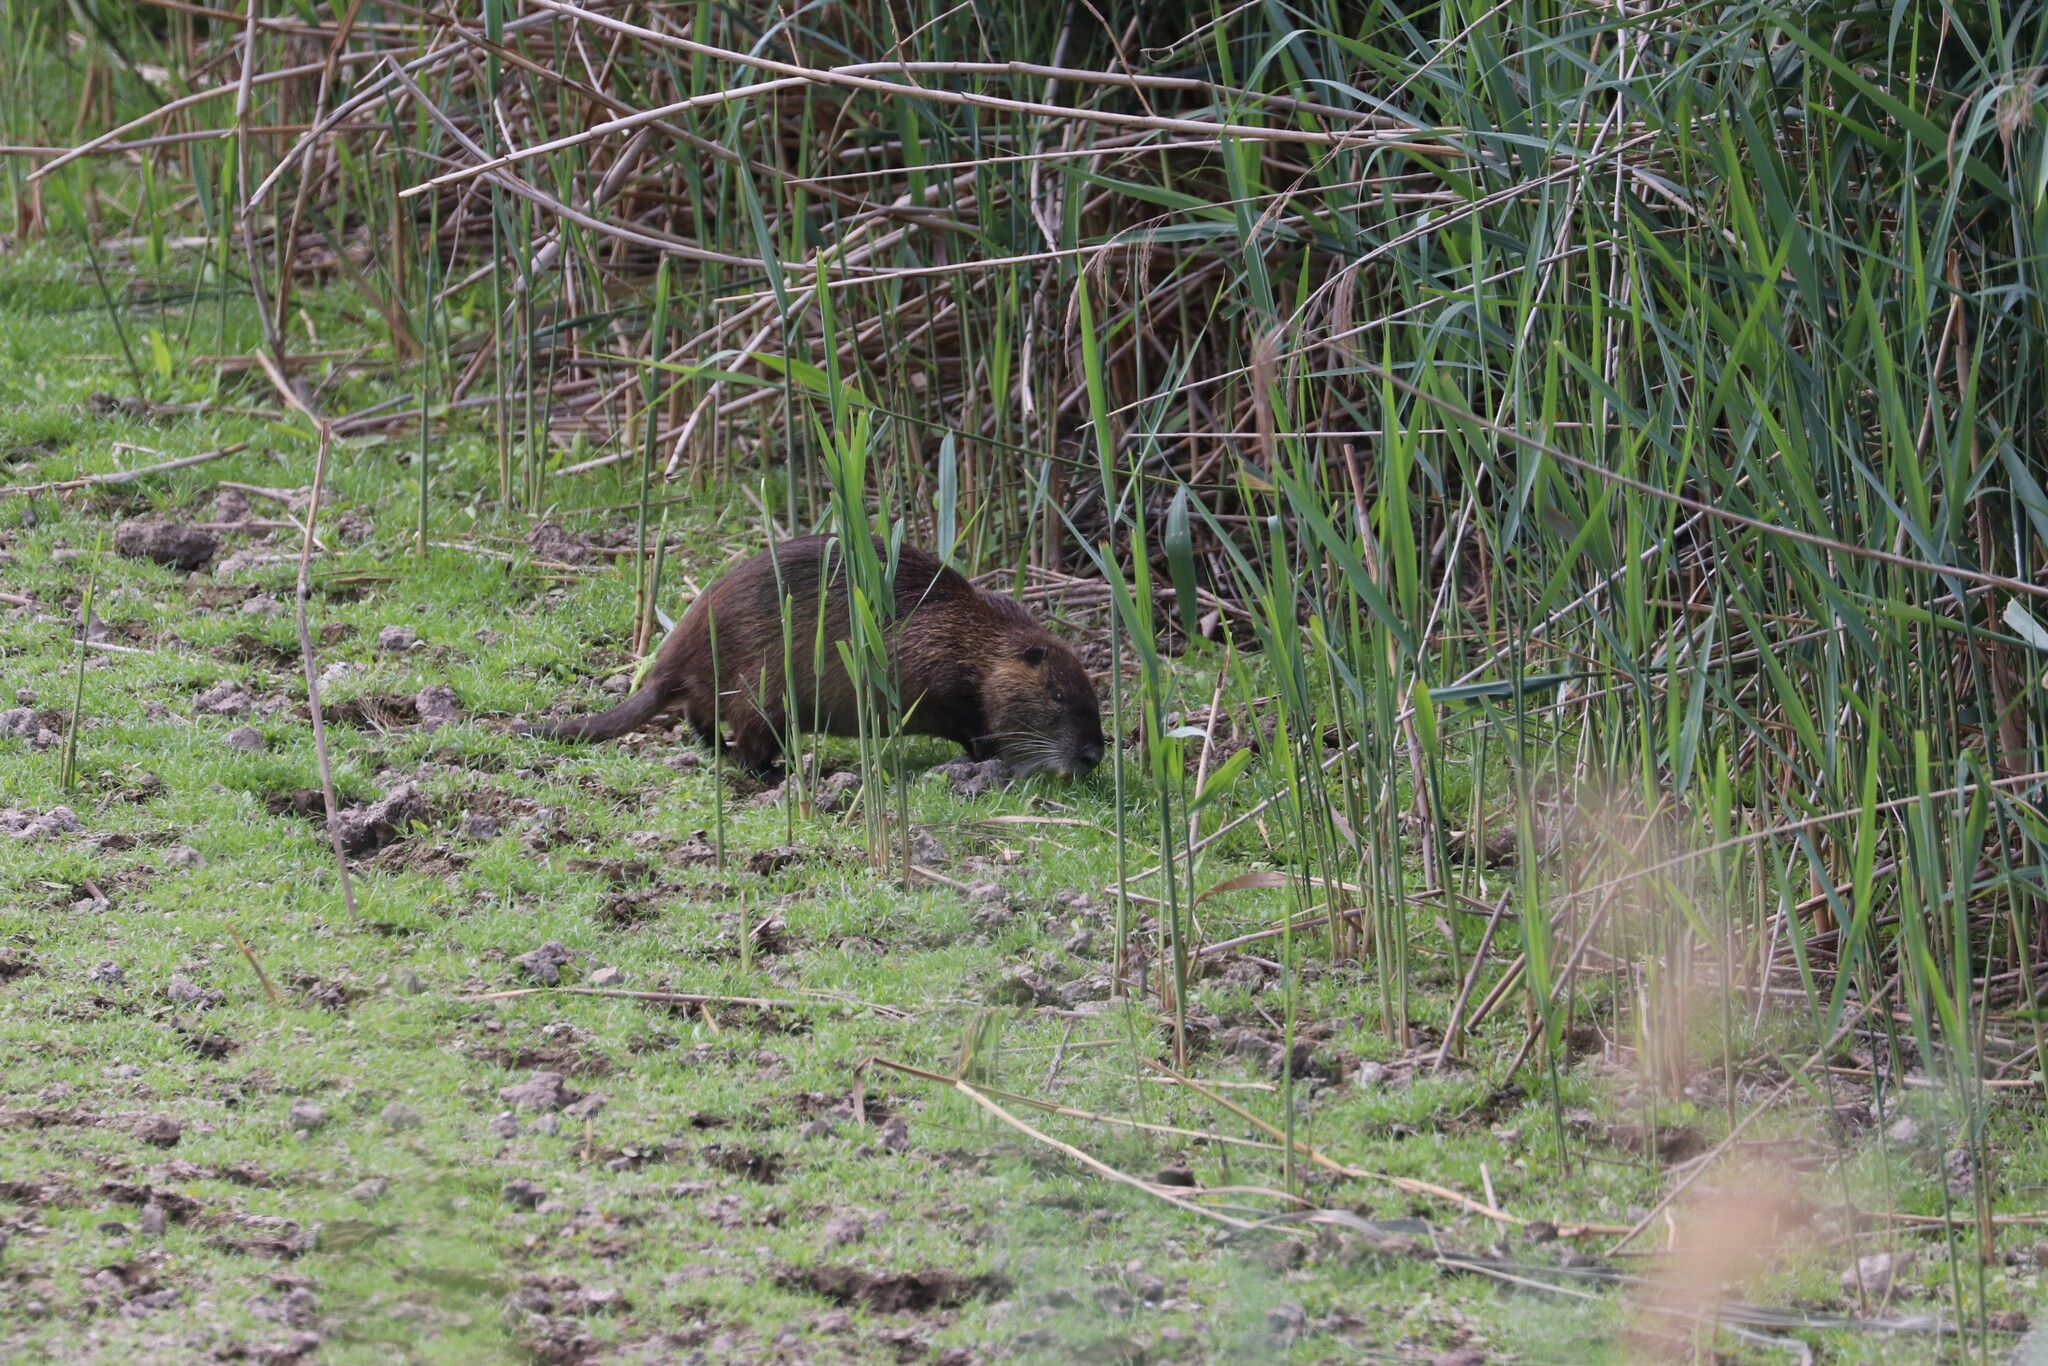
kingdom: Animalia
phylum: Chordata
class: Mammalia
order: Rodentia
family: Myocastoridae
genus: Myocastor
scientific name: Myocastor coypus
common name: Coypu
